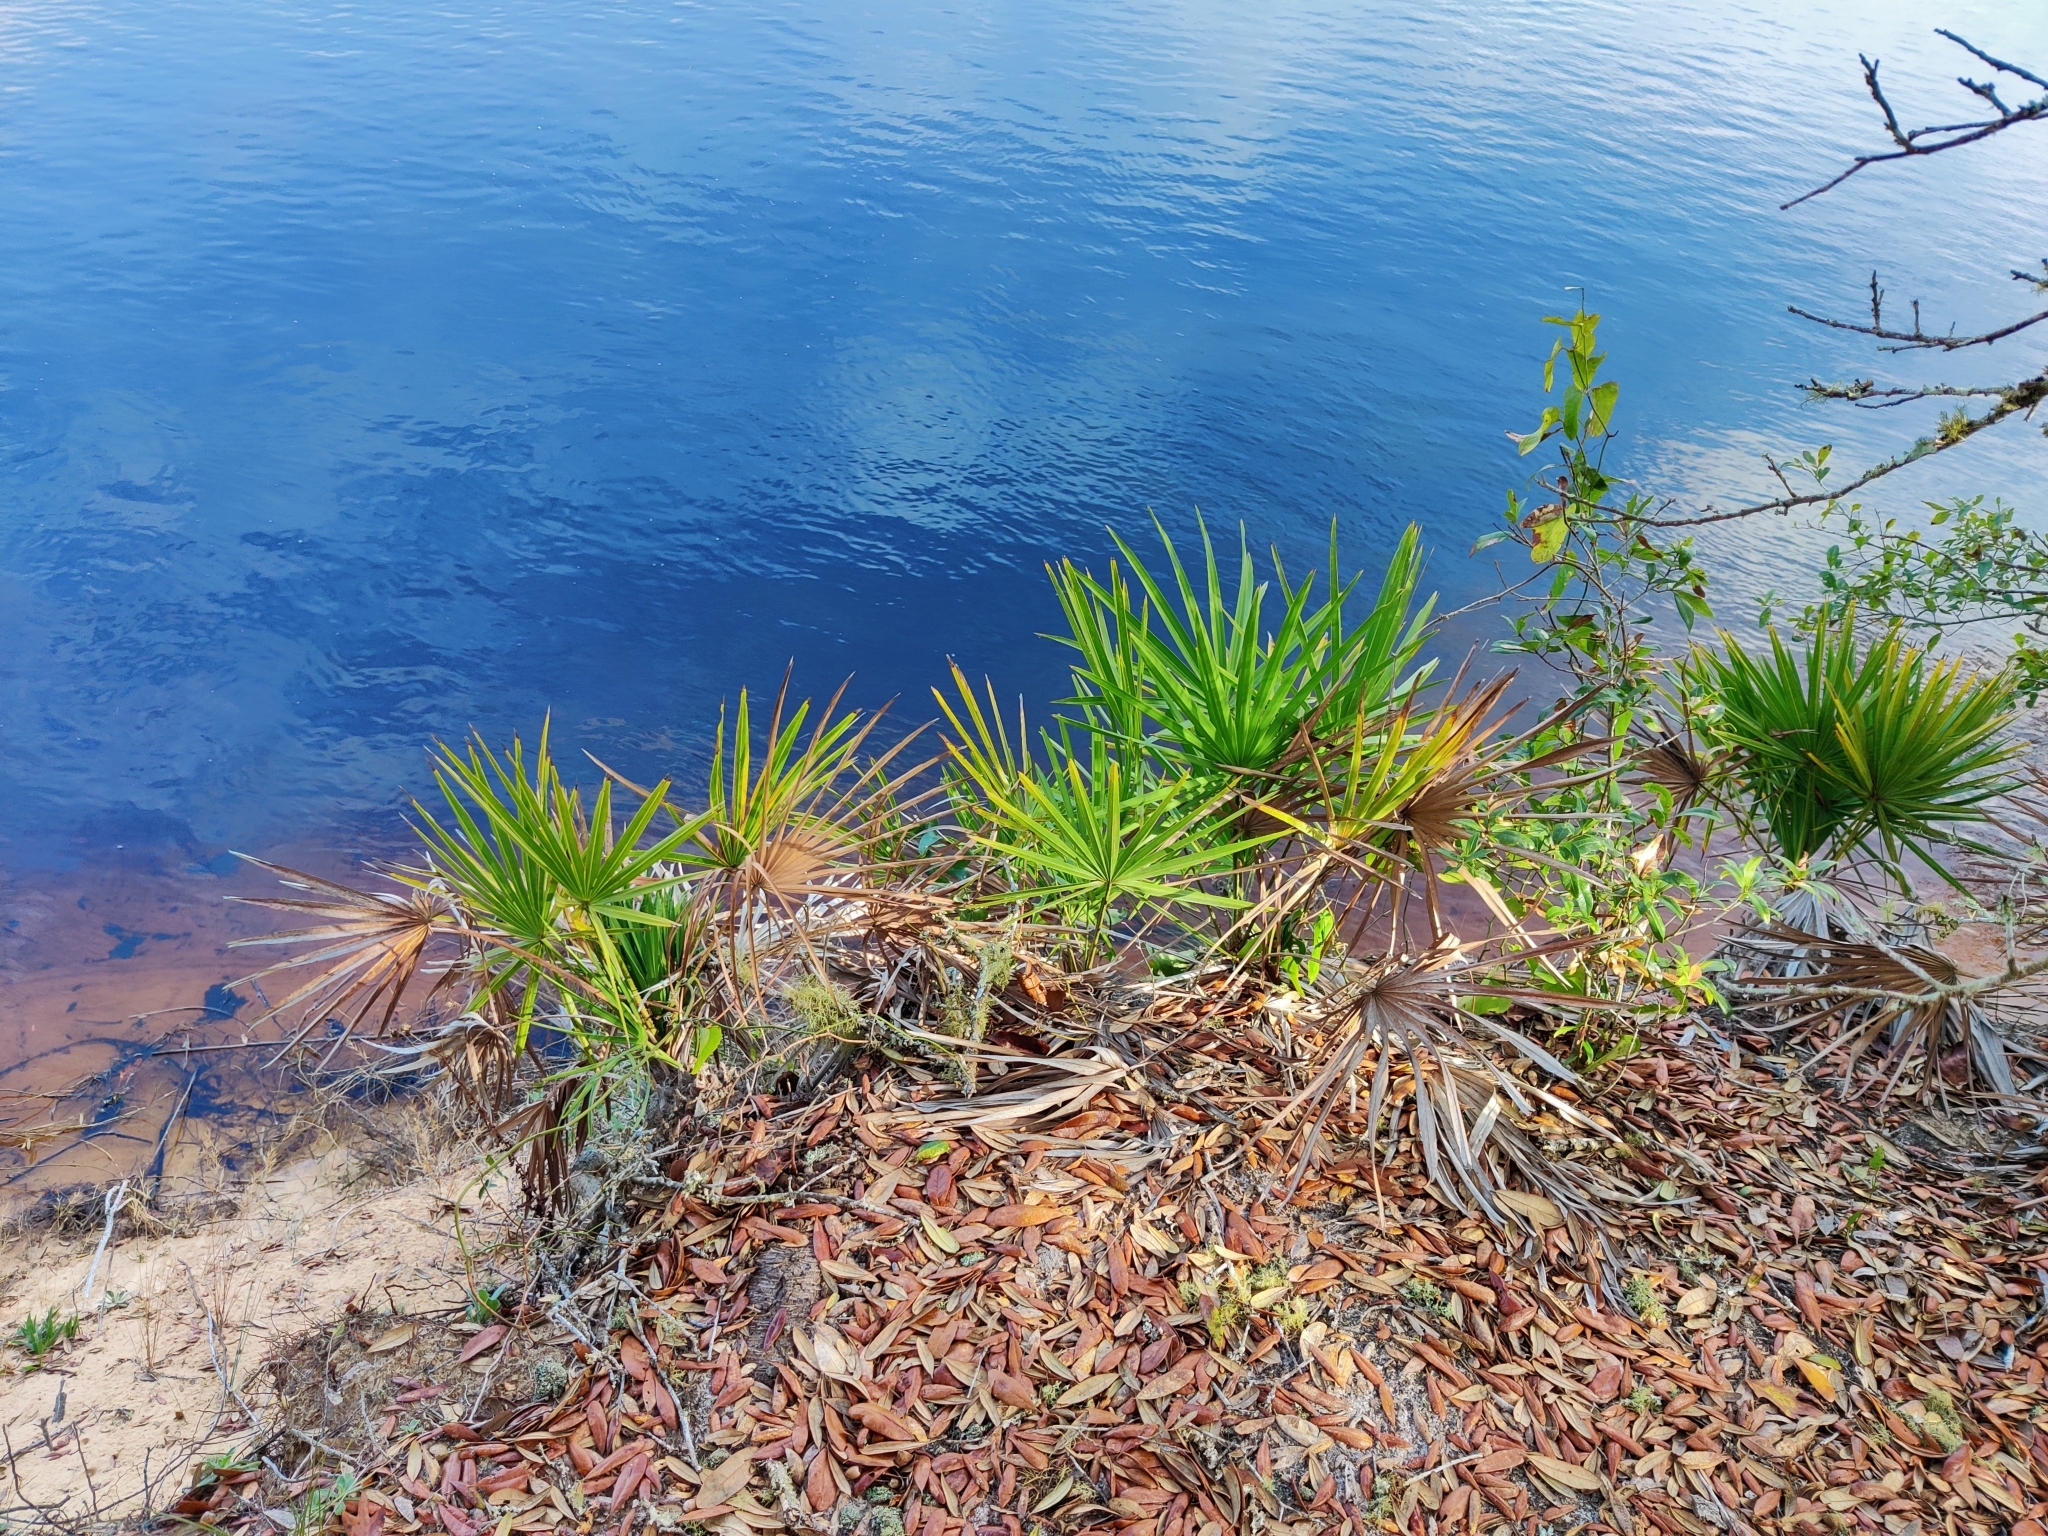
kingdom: Plantae
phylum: Tracheophyta
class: Liliopsida
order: Arecales
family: Arecaceae
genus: Serenoa
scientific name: Serenoa repens
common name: Saw-palmetto
